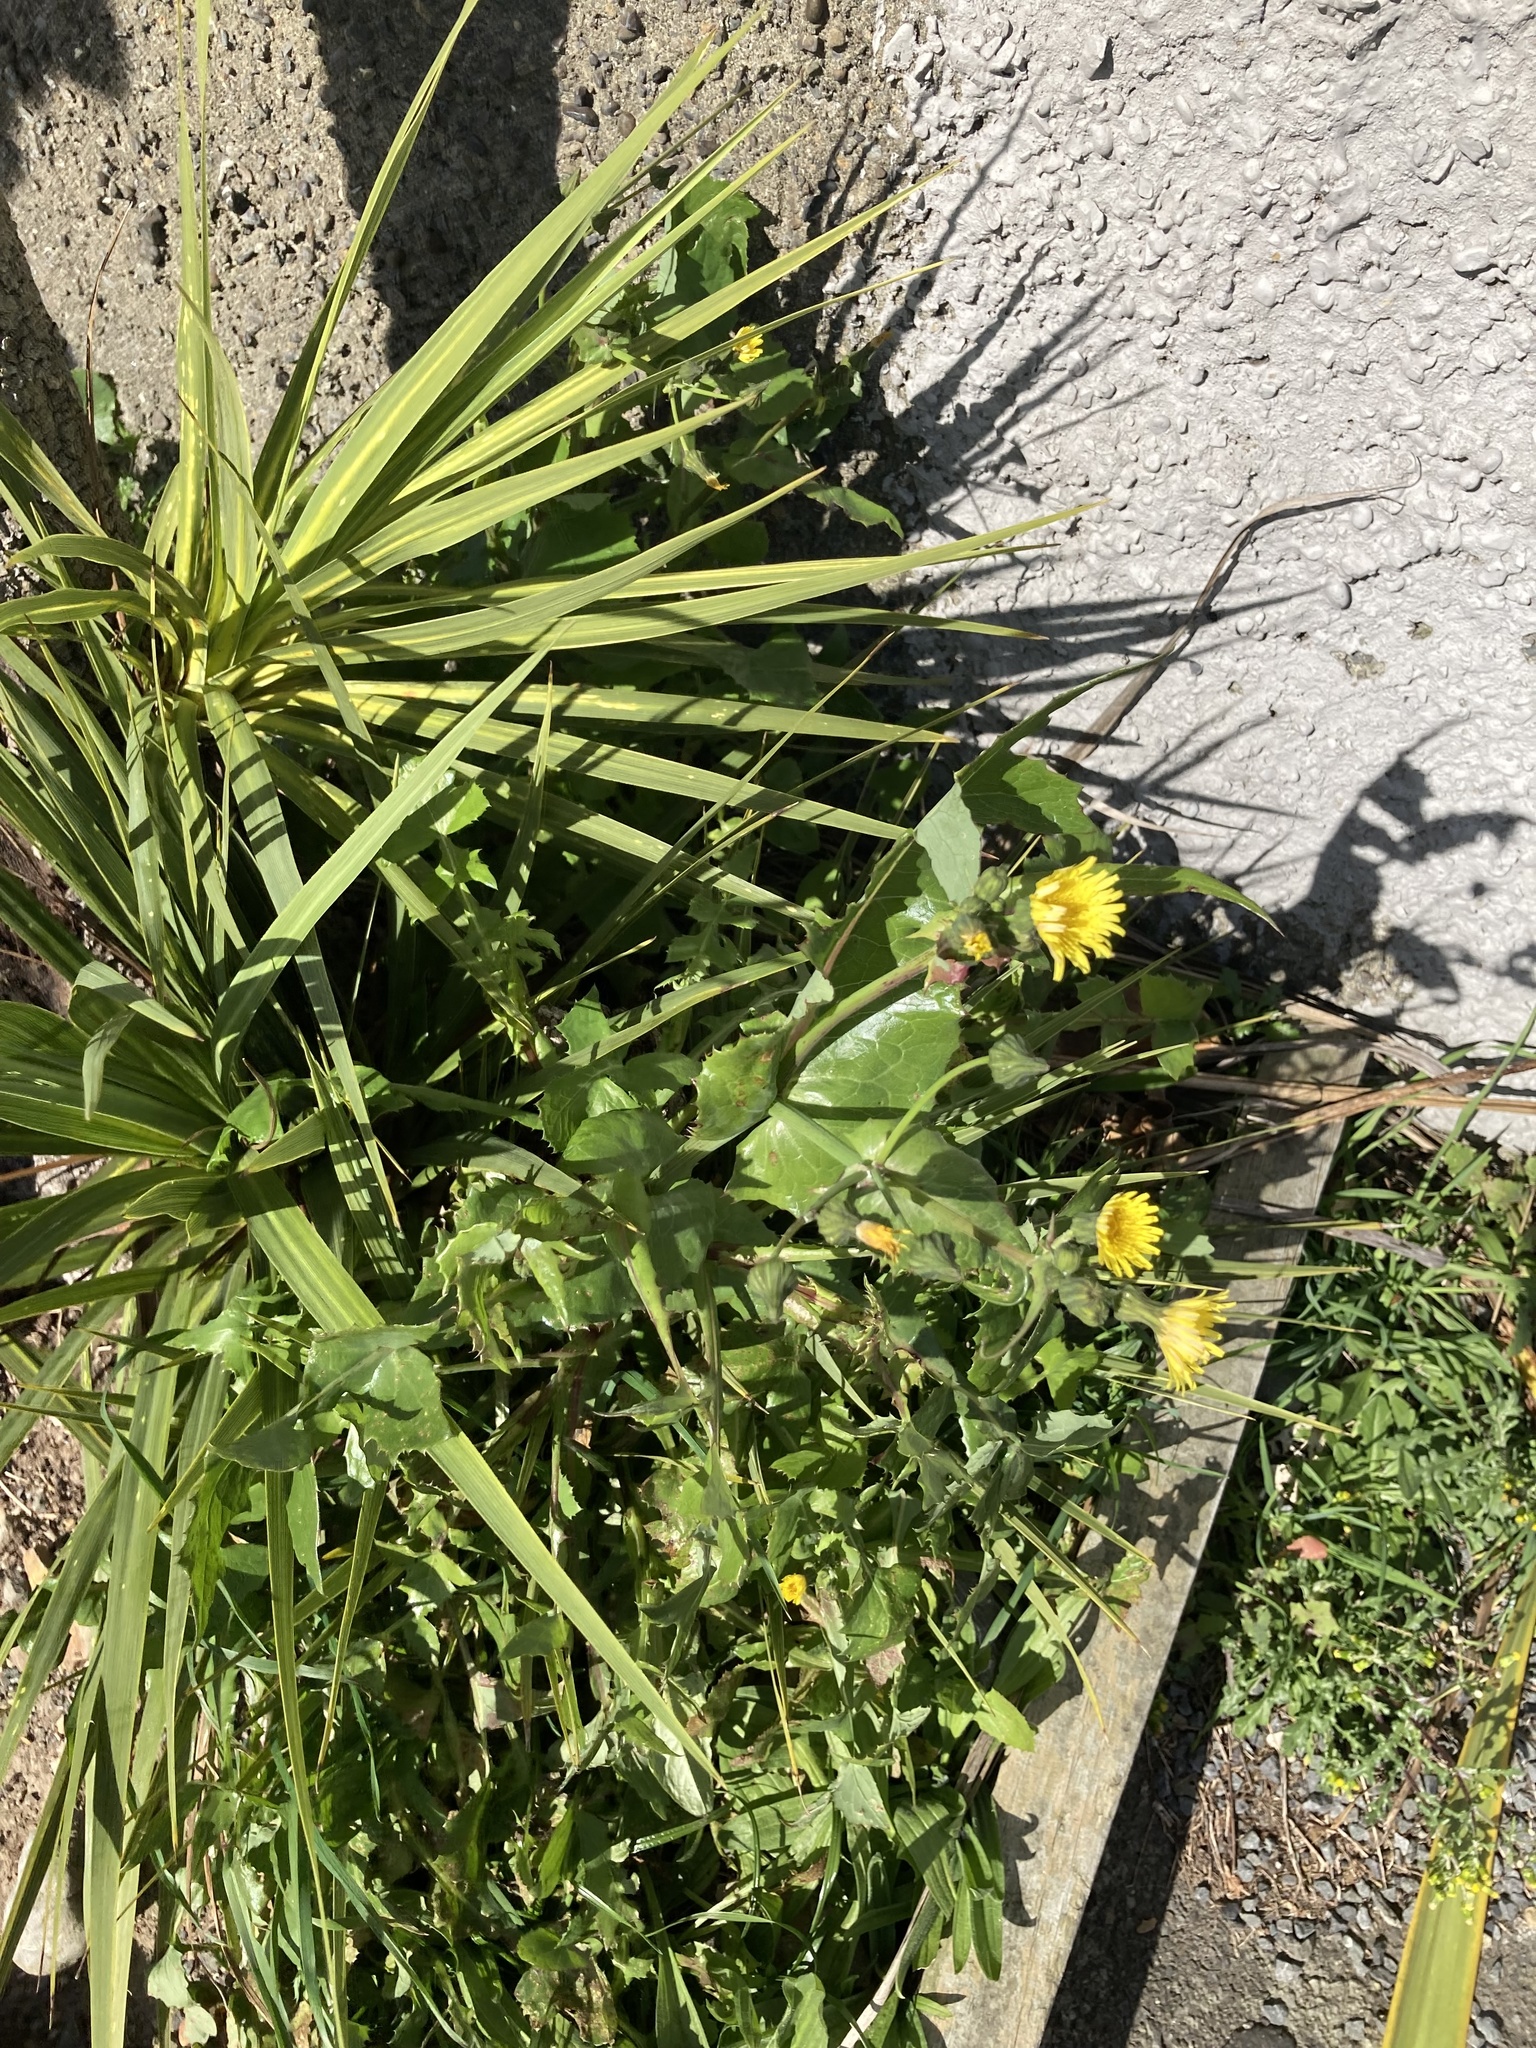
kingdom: Plantae
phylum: Tracheophyta
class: Magnoliopsida
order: Asterales
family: Asteraceae
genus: Sonchus
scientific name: Sonchus oleraceus
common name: Common sowthistle
